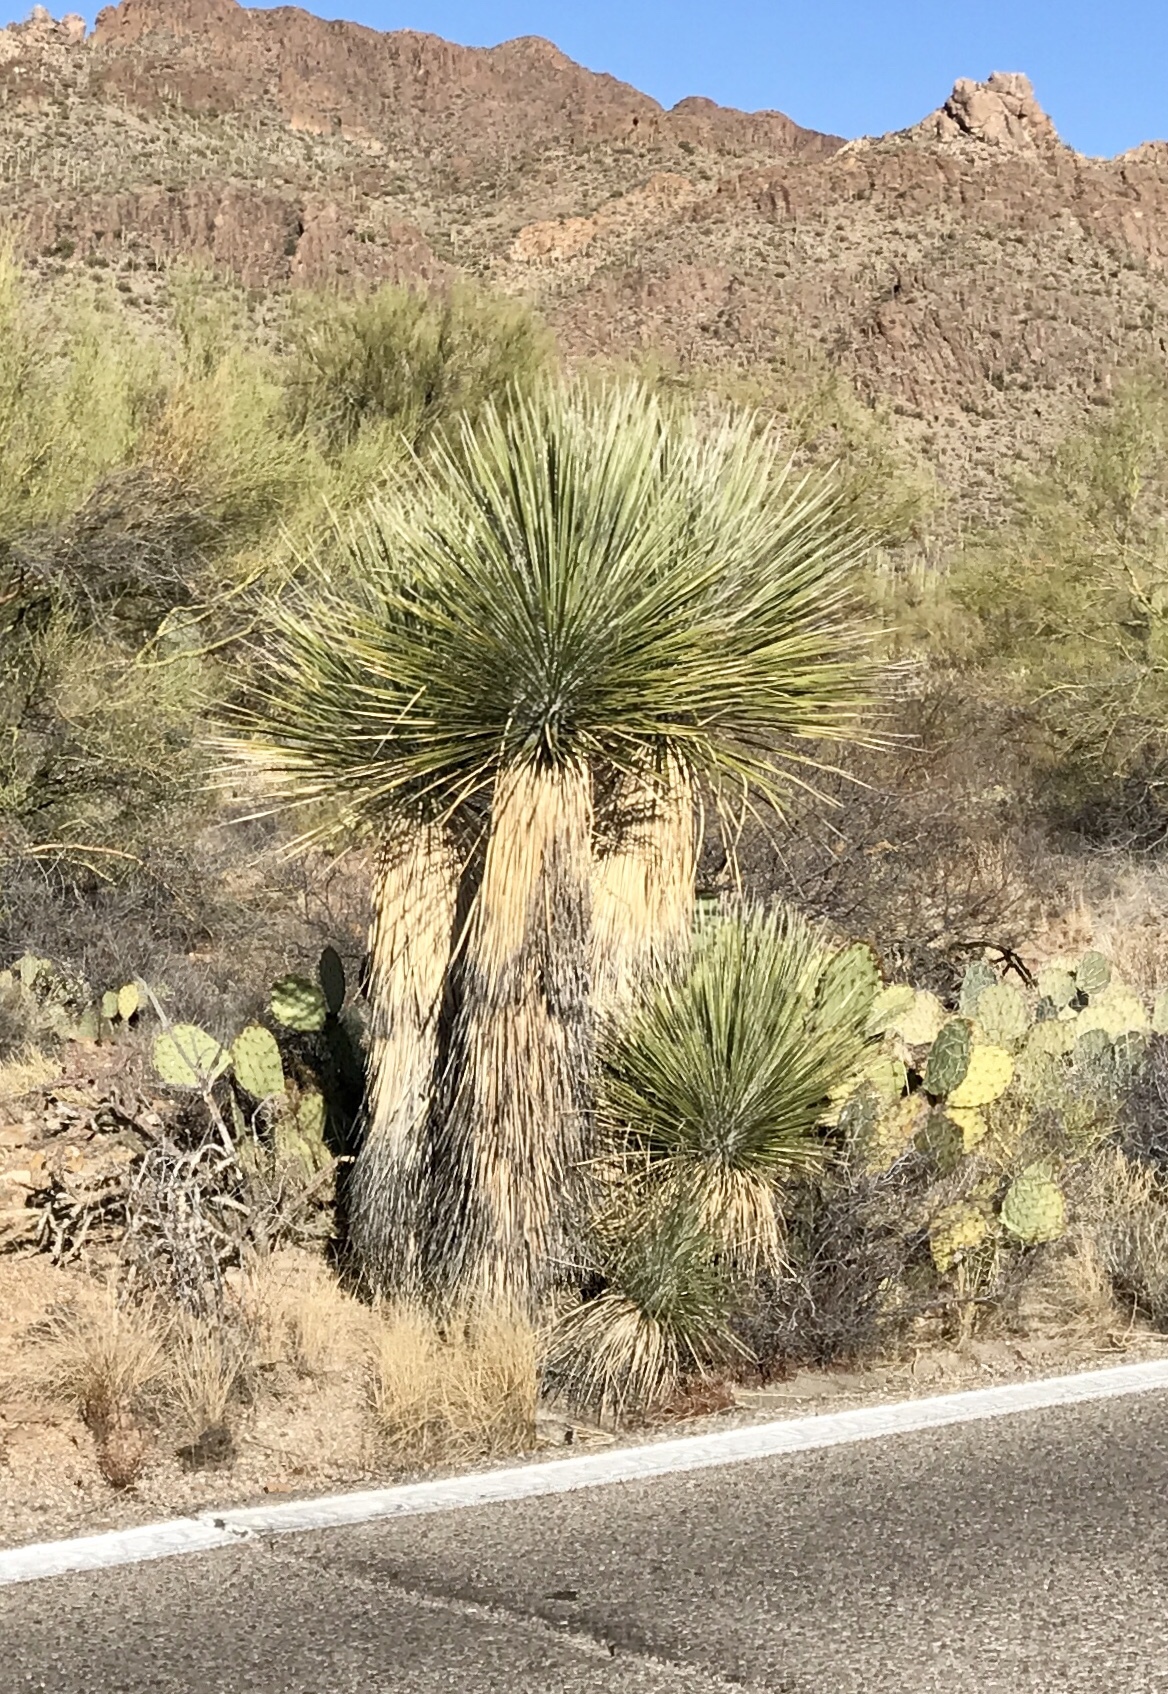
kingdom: Plantae
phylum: Tracheophyta
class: Liliopsida
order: Asparagales
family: Asparagaceae
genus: Yucca
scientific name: Yucca elata
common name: Palmella
